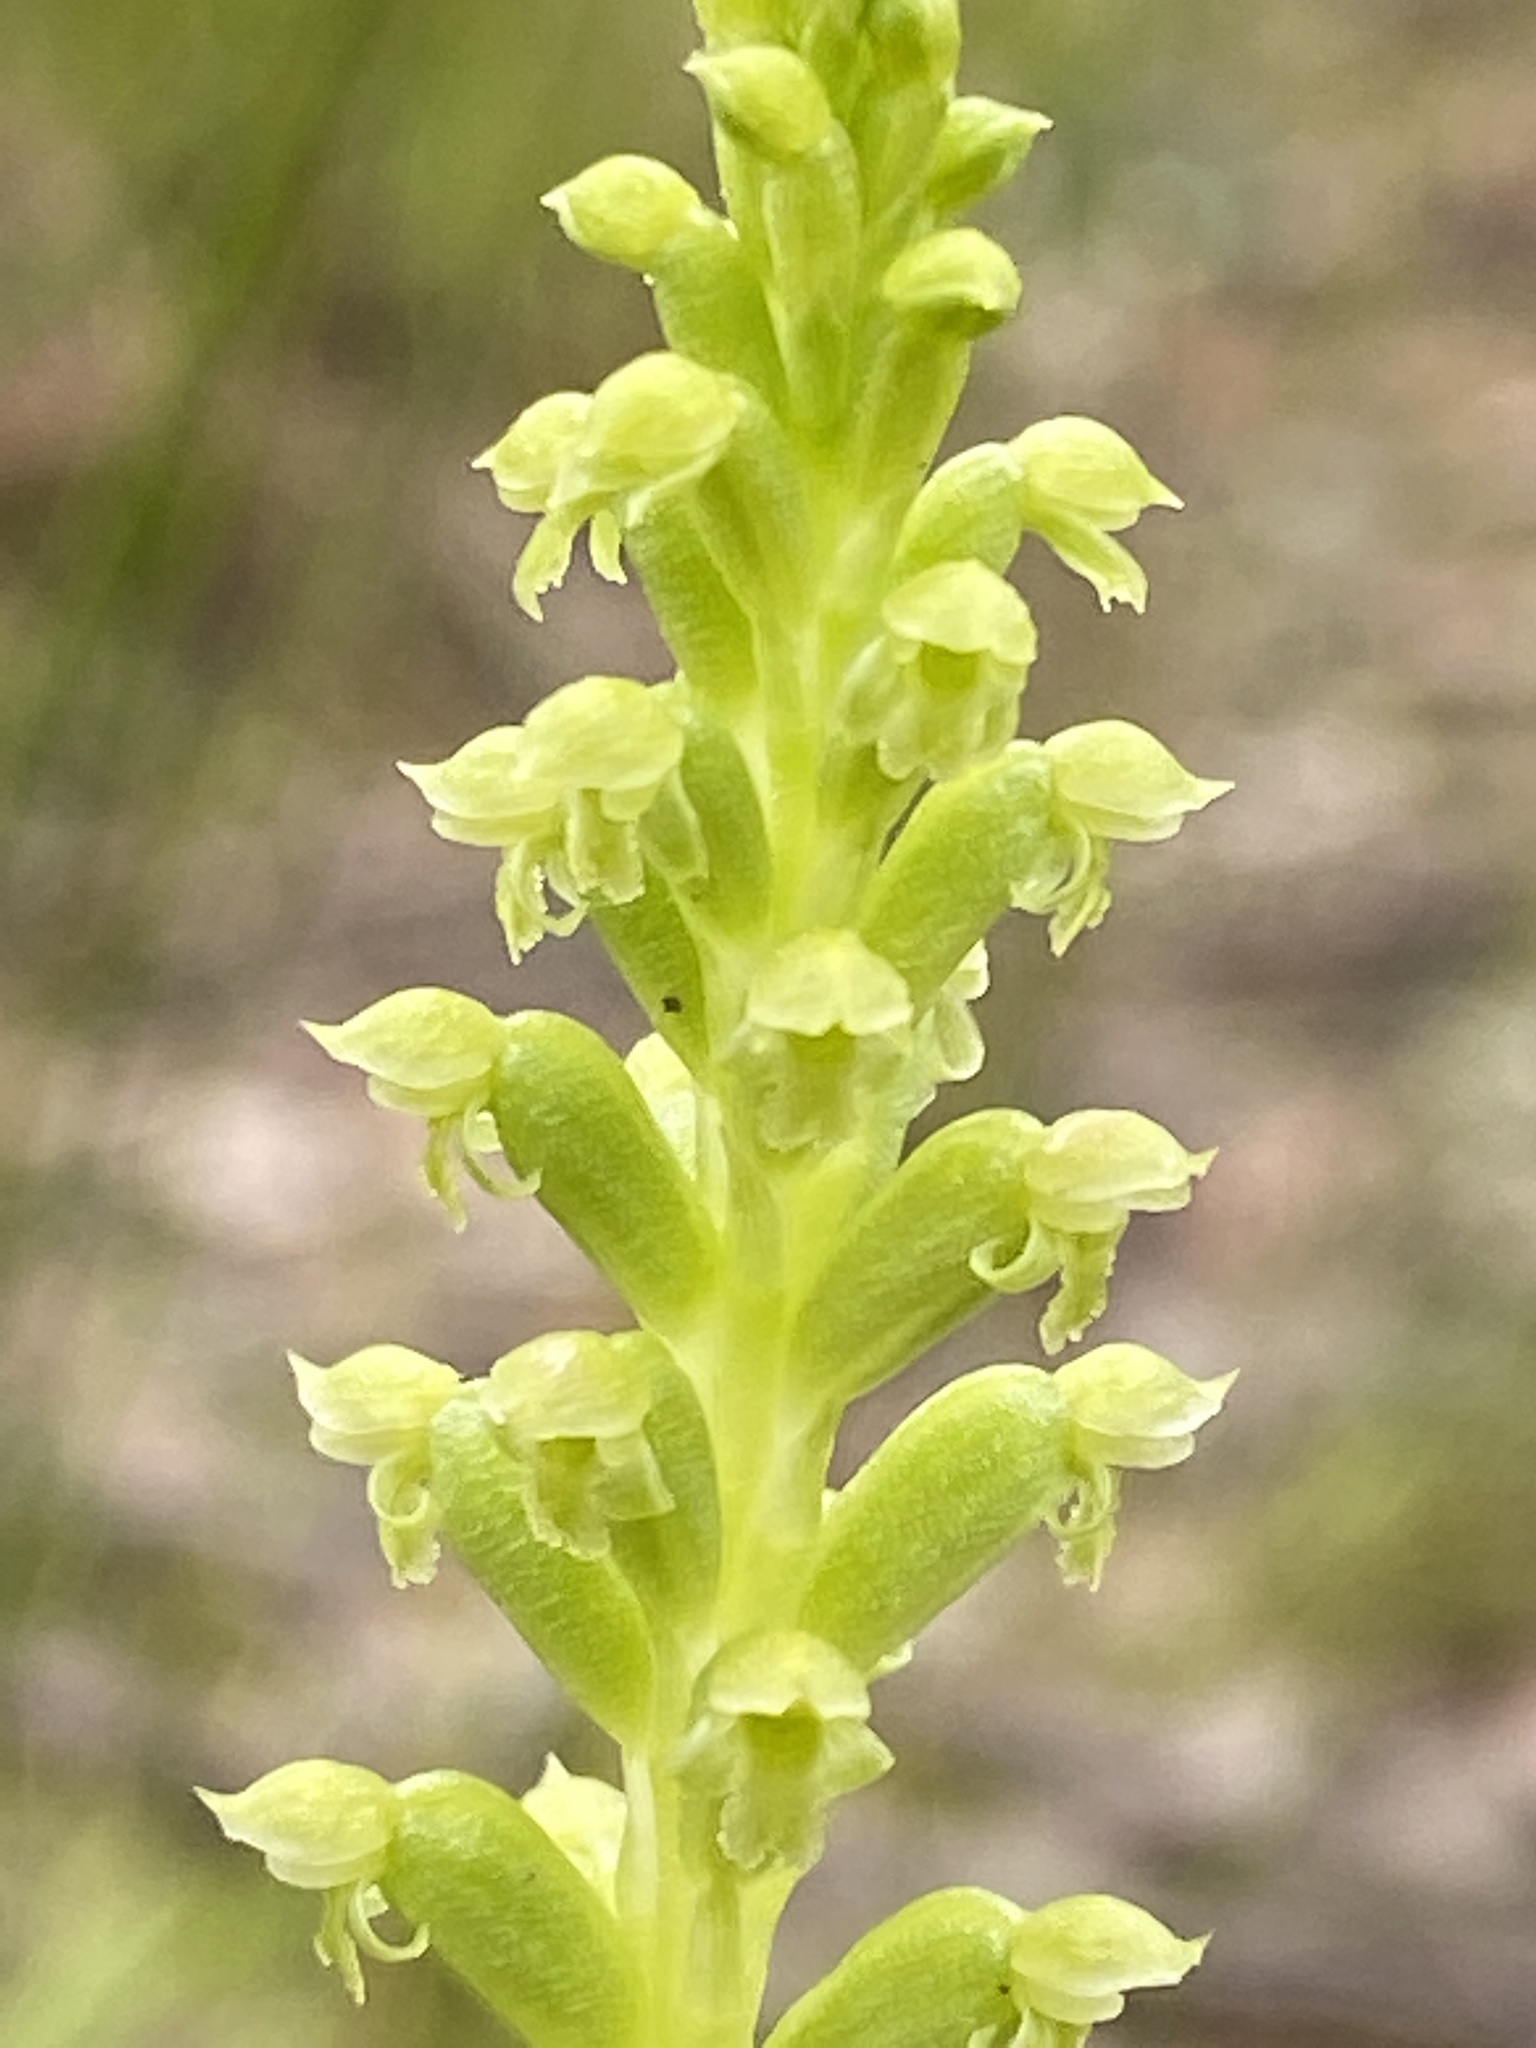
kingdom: Plantae
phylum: Tracheophyta
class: Liliopsida
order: Asparagales
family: Orchidaceae
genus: Microtis
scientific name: Microtis arenaria
